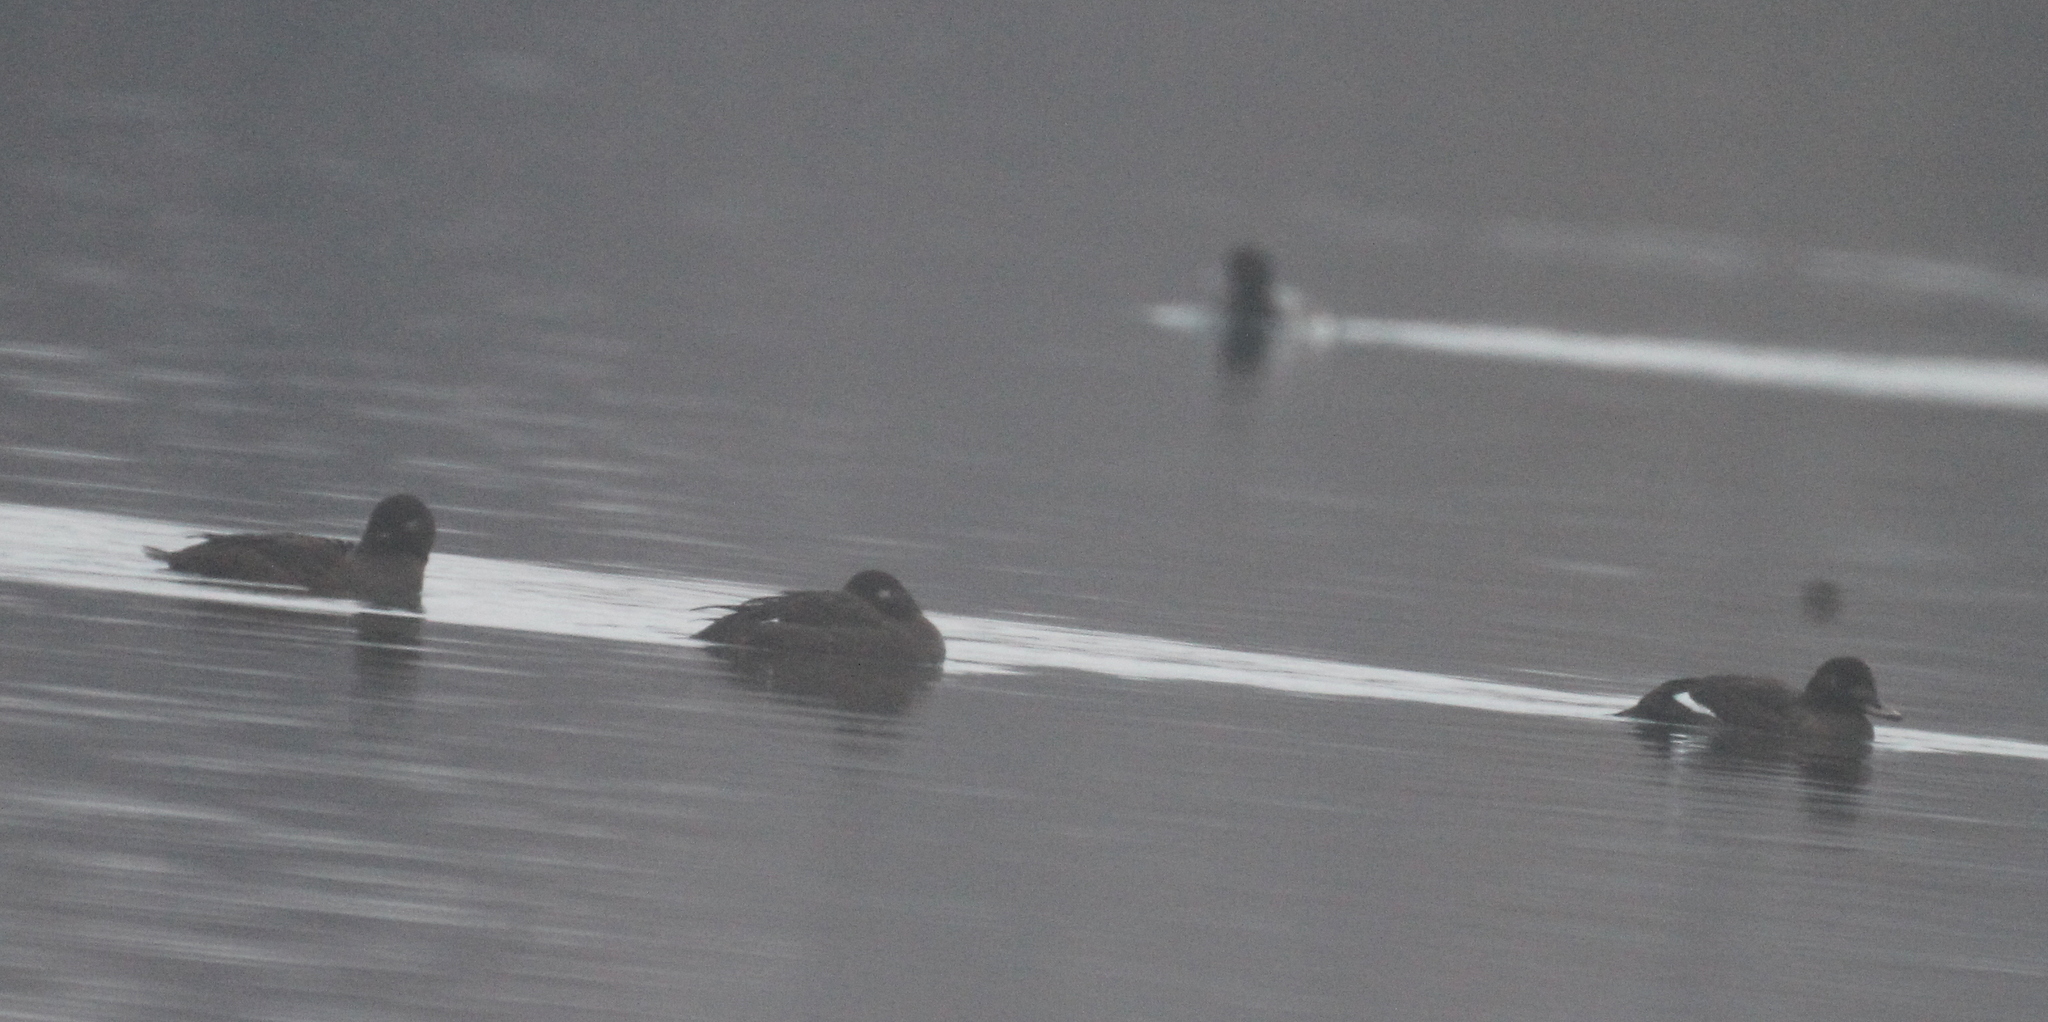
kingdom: Animalia
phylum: Chordata
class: Aves
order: Anseriformes
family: Anatidae
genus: Melanitta
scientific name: Melanitta fusca
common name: Velvet scoter
